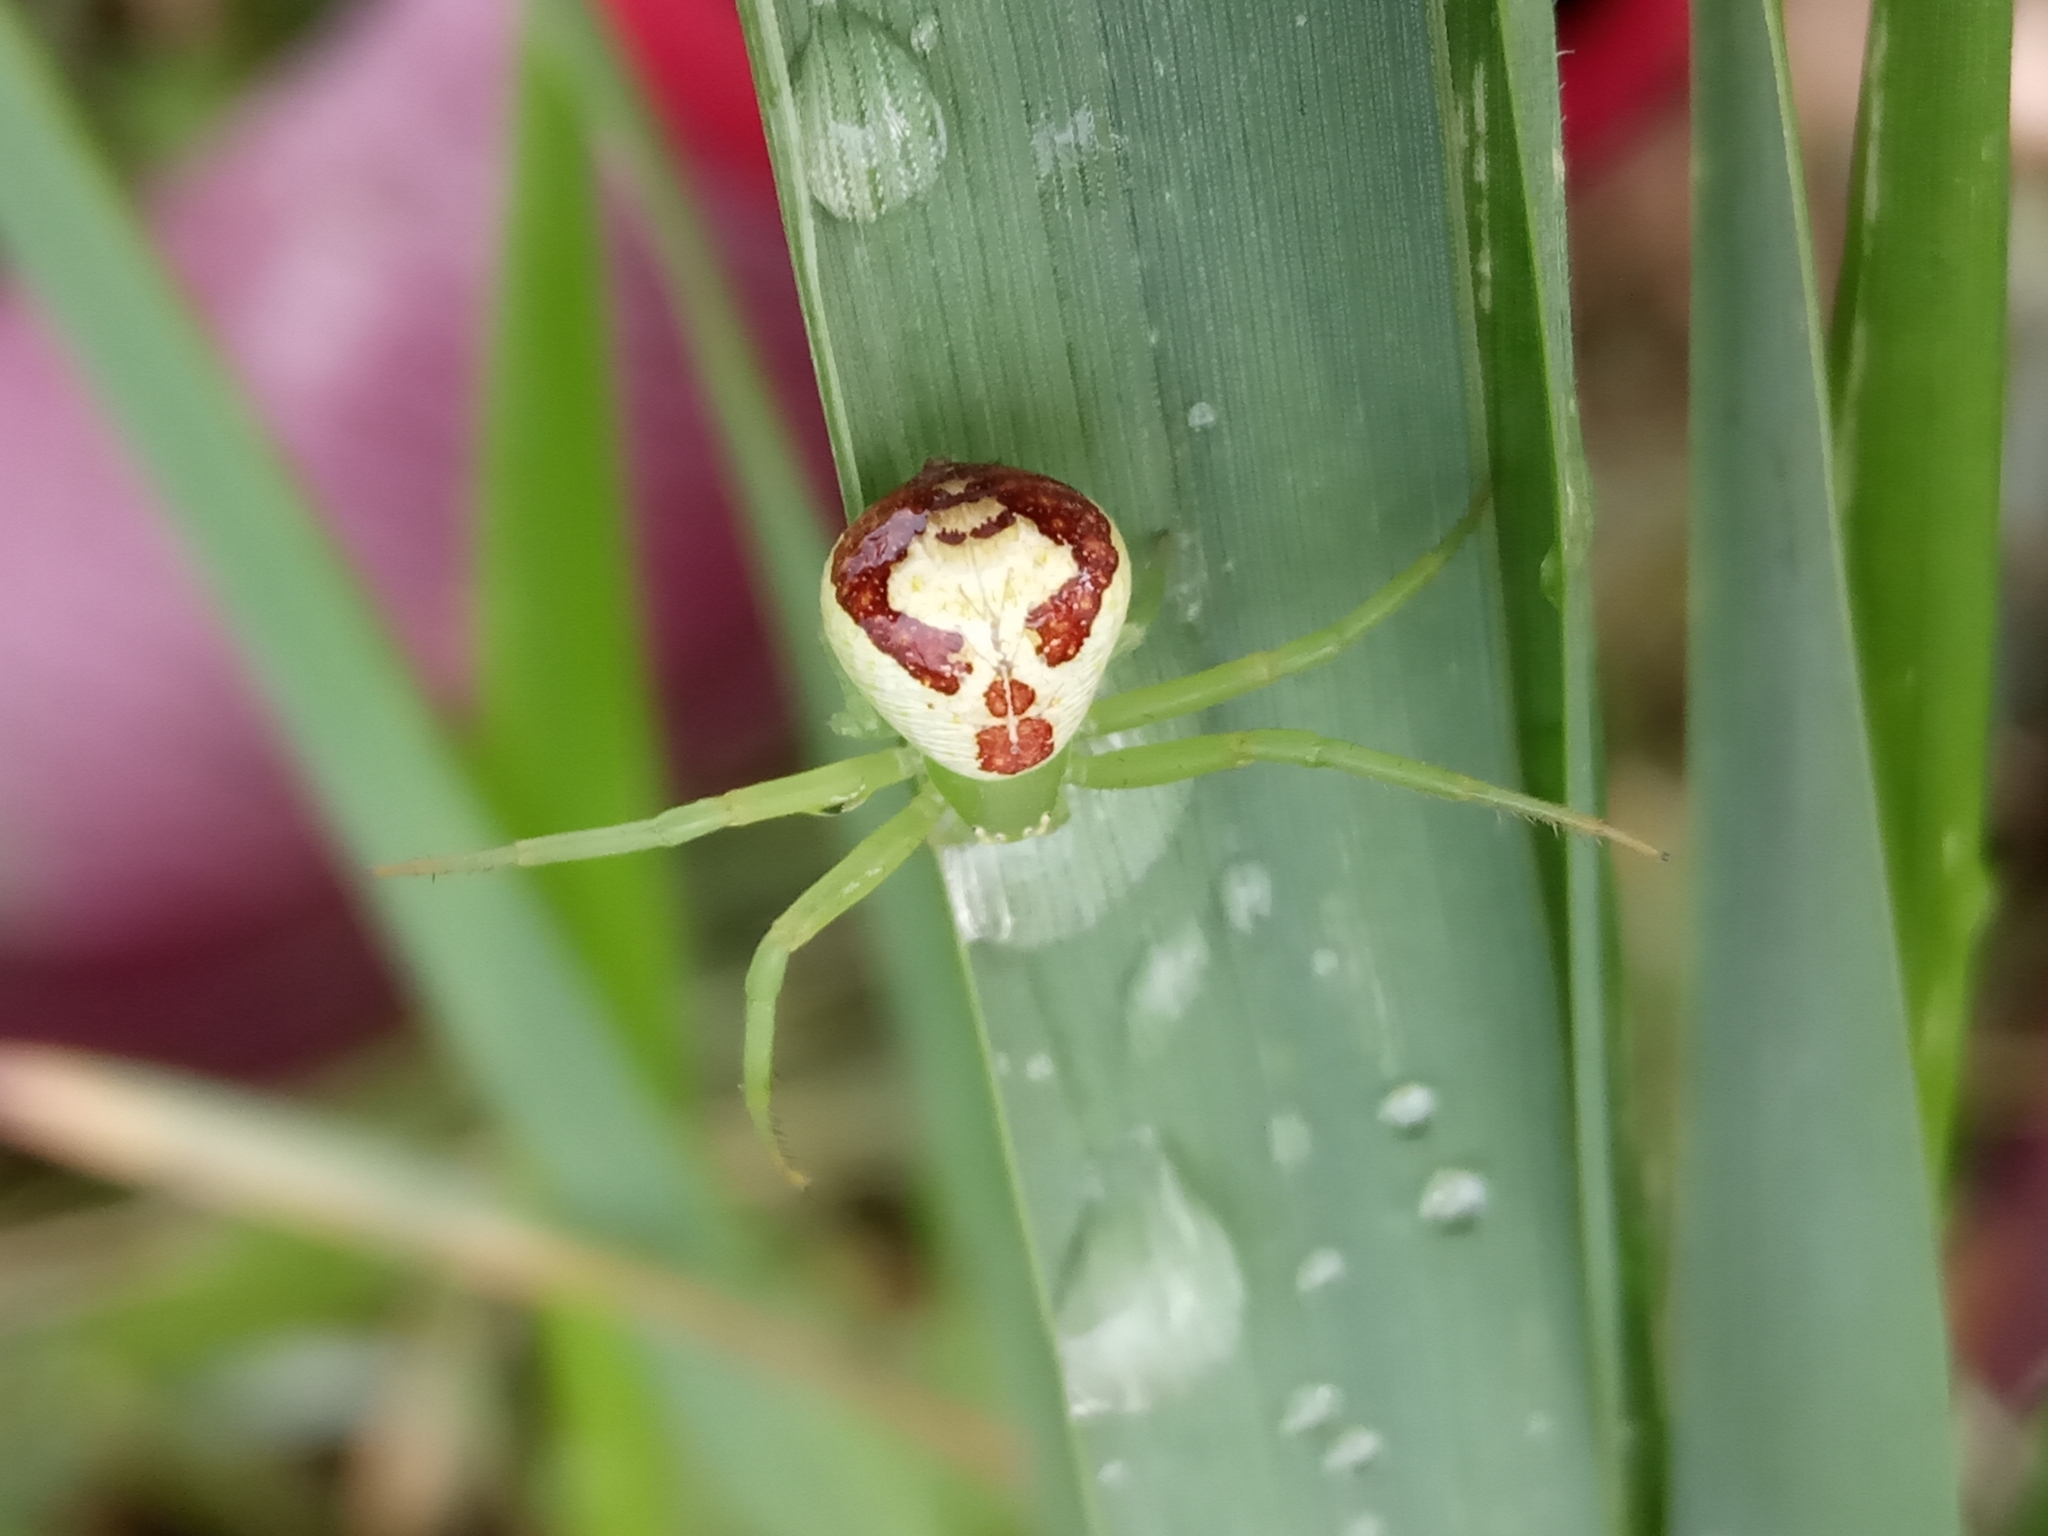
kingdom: Animalia
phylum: Arthropoda
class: Arachnida
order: Araneae
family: Thomisidae
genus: Ebrechtella
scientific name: Ebrechtella tricuspidata
